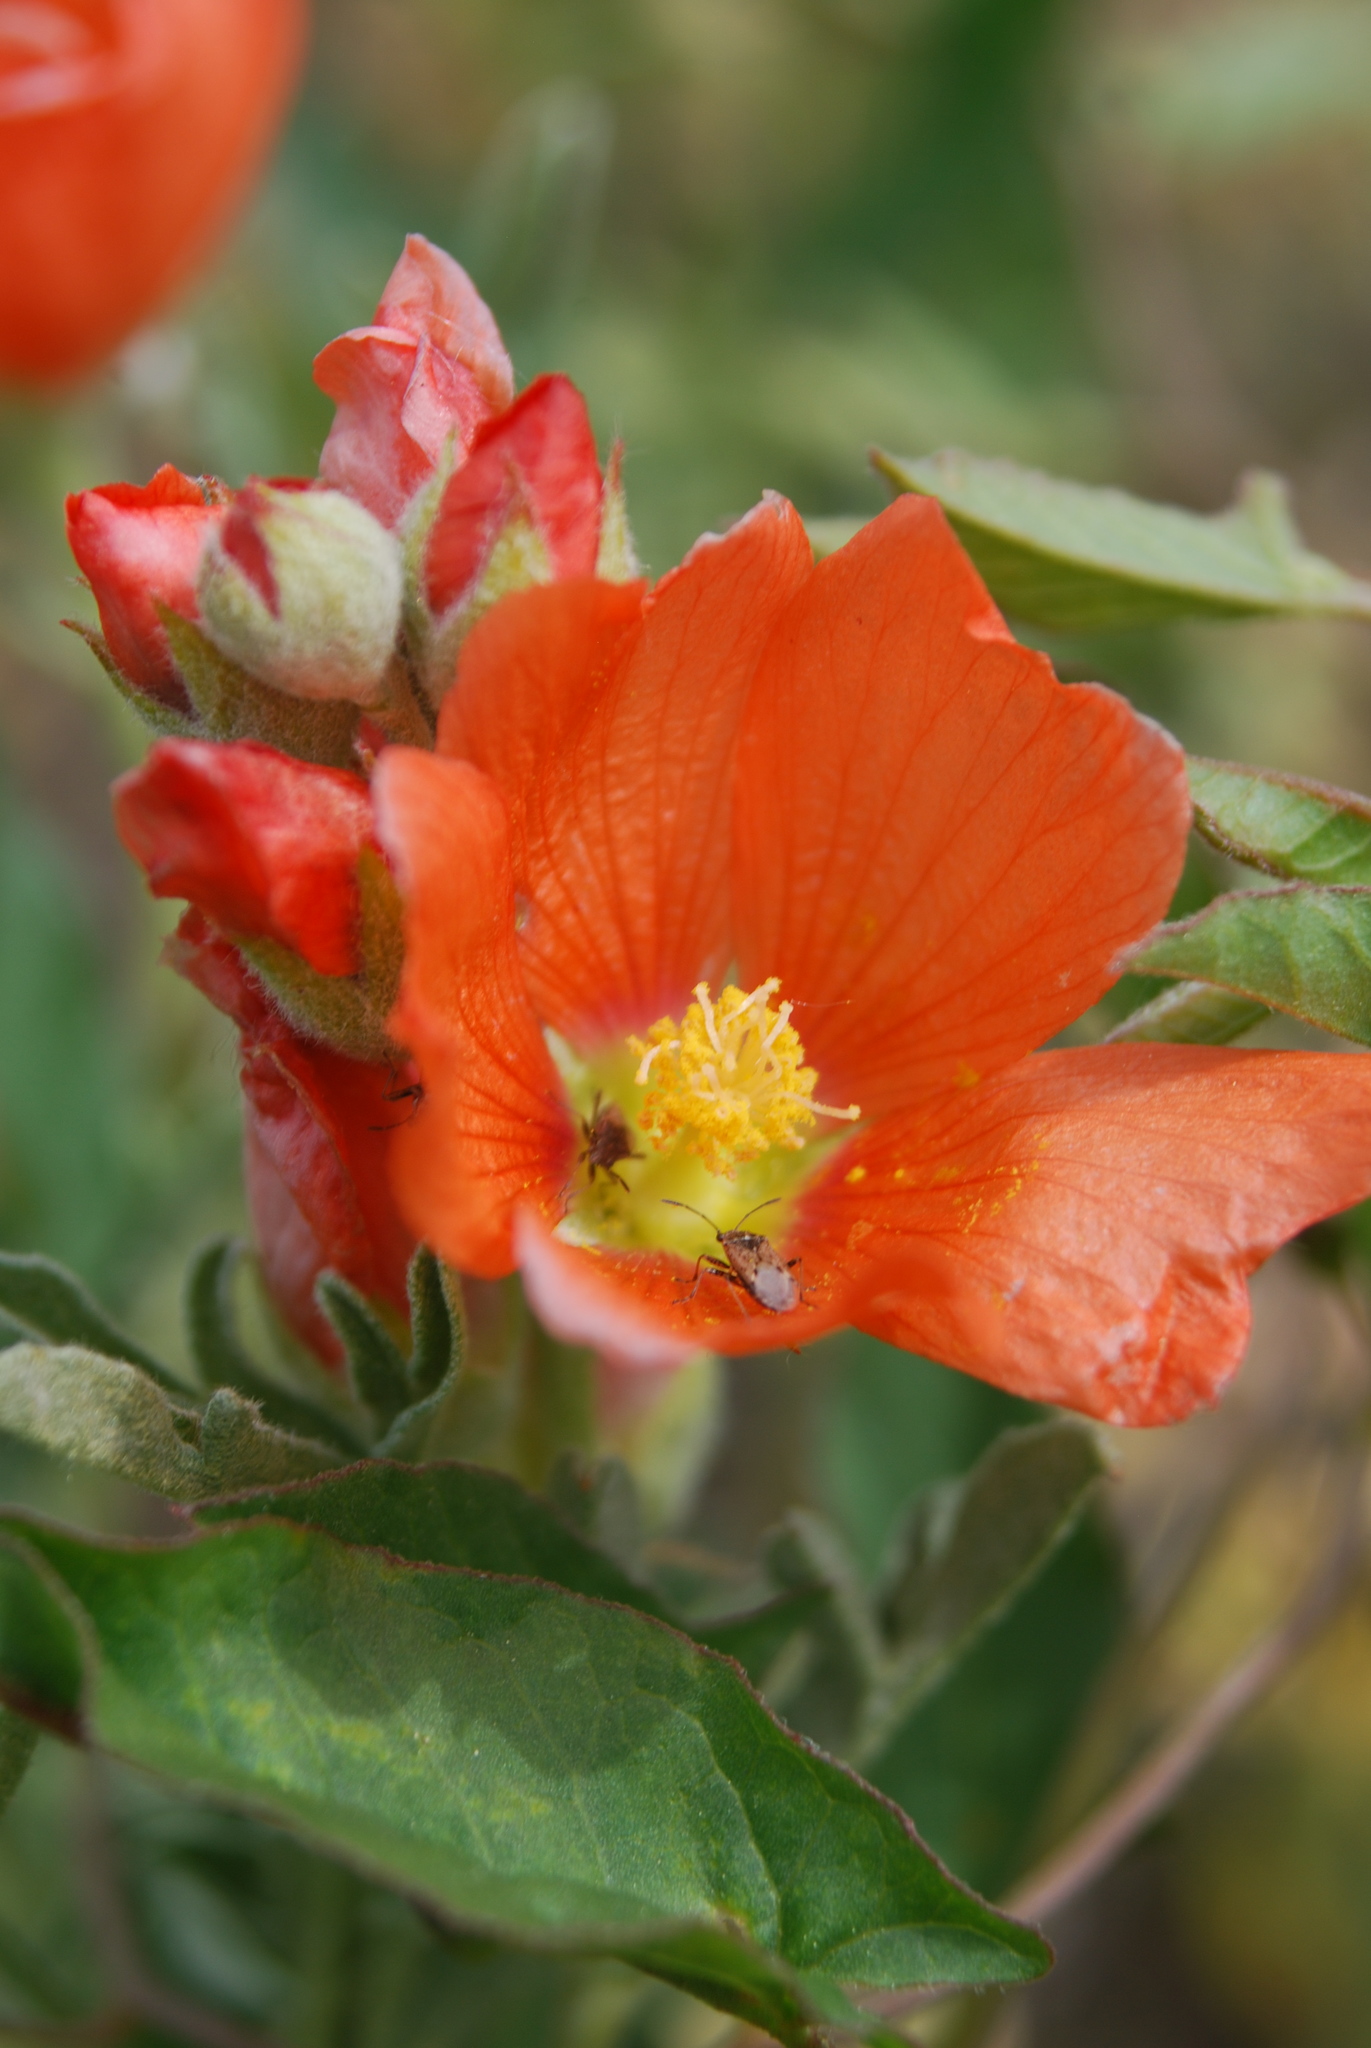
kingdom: Plantae
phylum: Tracheophyta
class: Magnoliopsida
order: Malvales
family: Malvaceae
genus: Sphaeralcea
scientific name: Sphaeralcea coccinea
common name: Moss-rose
